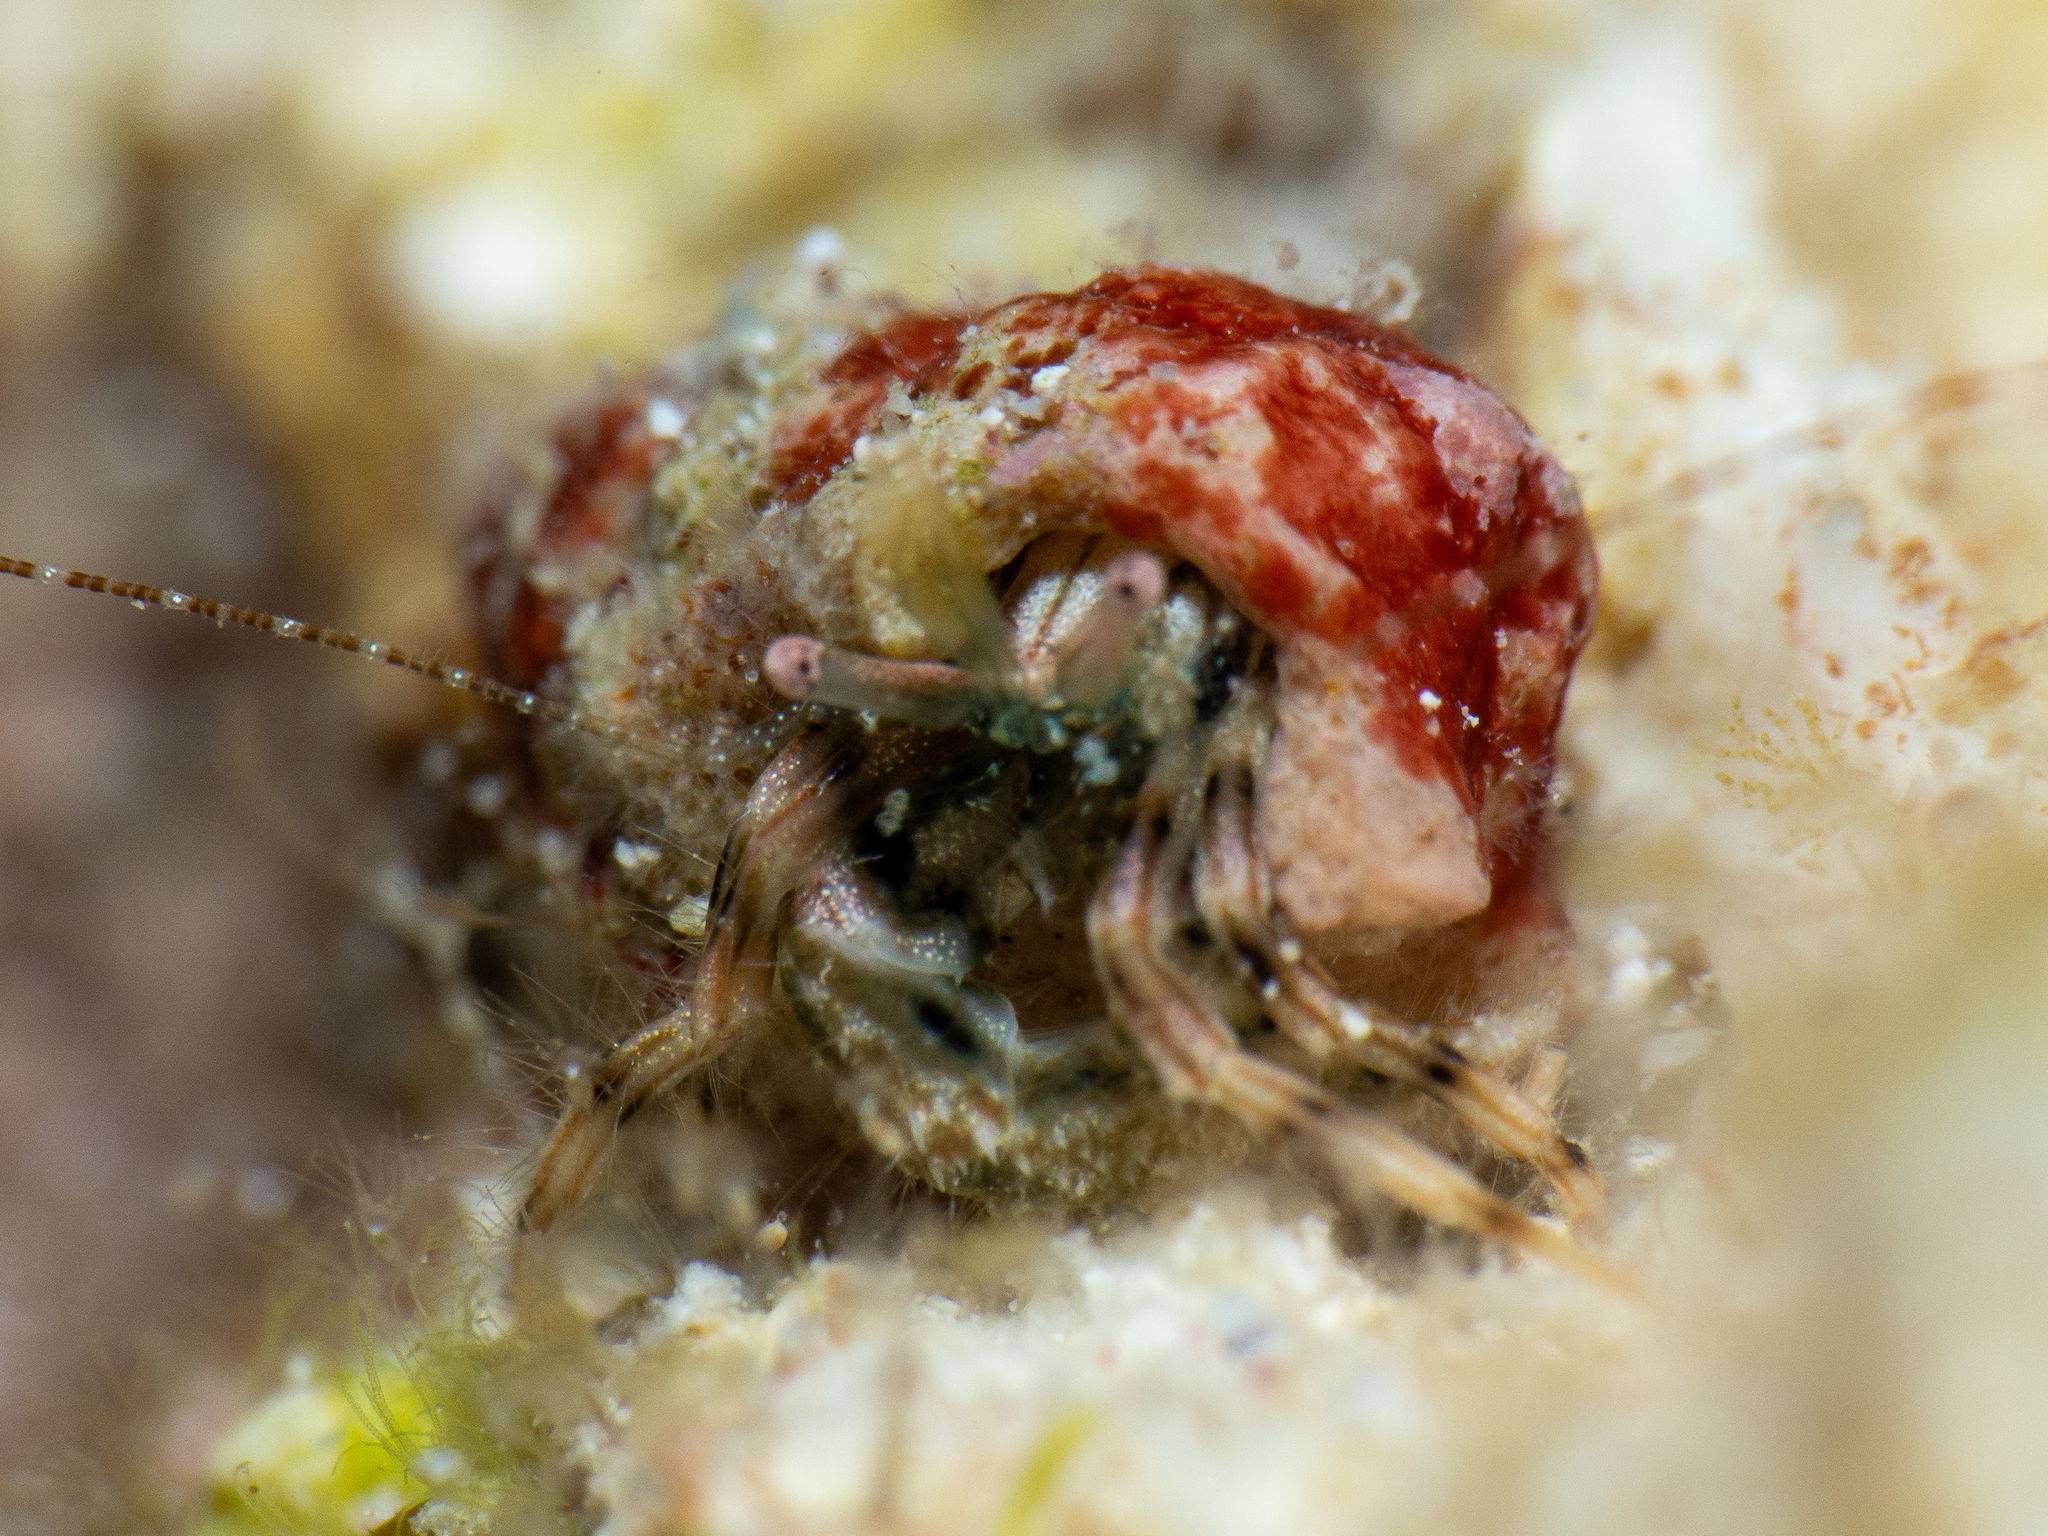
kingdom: Animalia
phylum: Arthropoda
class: Malacostraca
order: Decapoda
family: Paguridae
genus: Pagurus
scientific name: Pagurus brevidactylus
